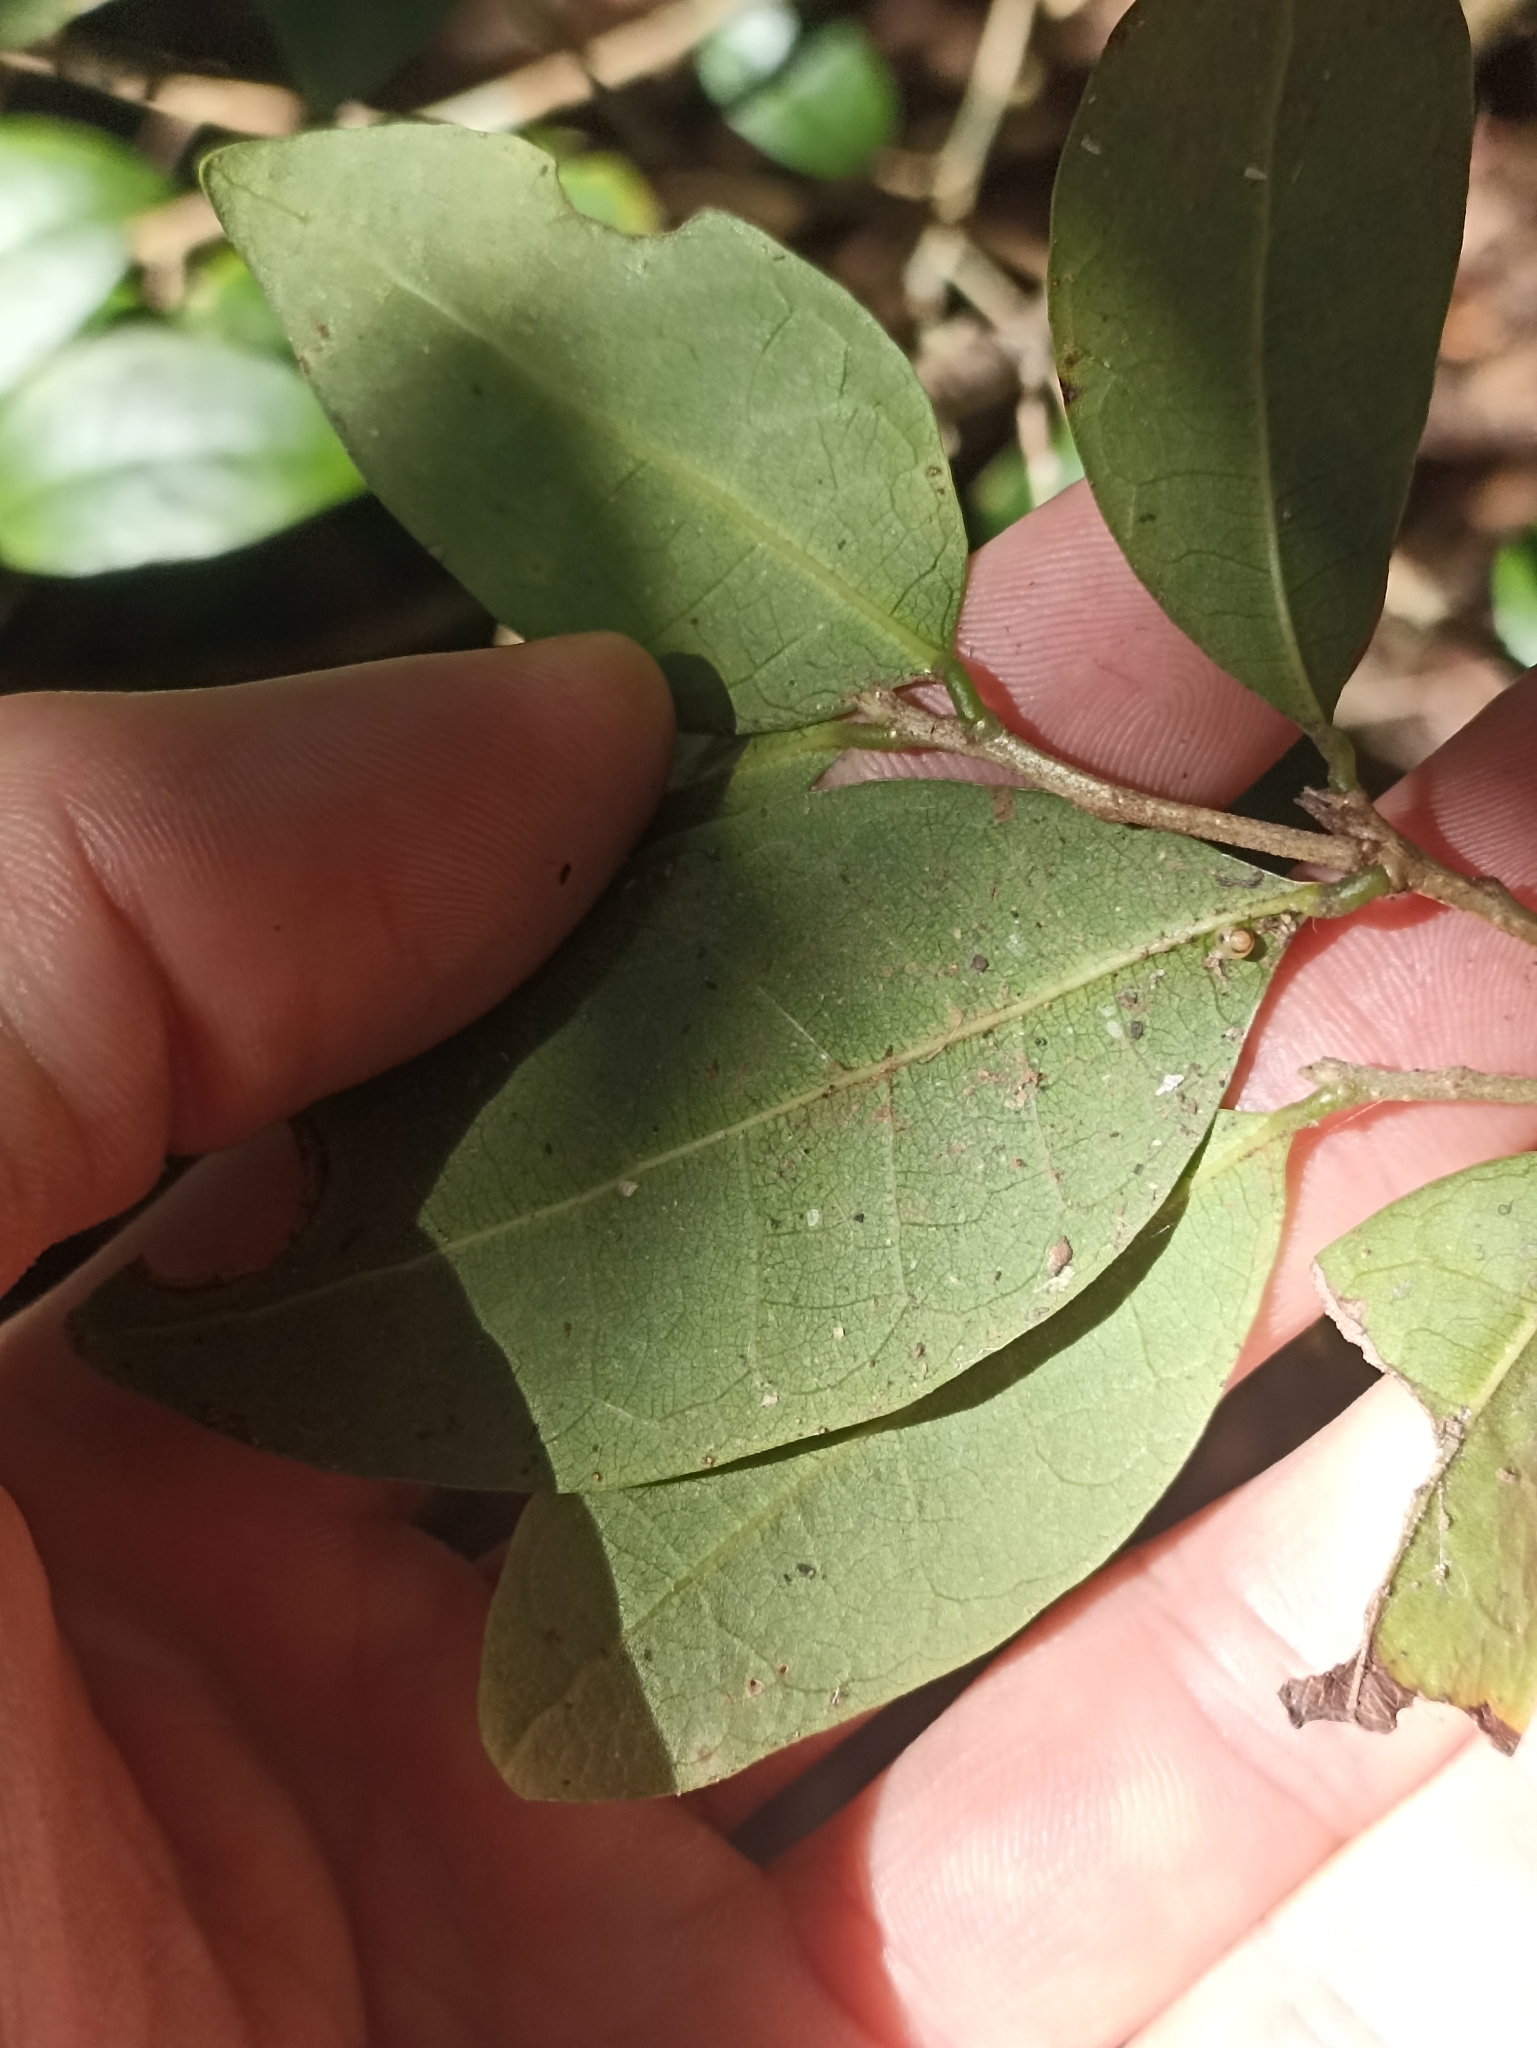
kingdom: Plantae
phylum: Tracheophyta
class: Magnoliopsida
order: Malpighiales
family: Phyllanthaceae
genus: Cleistanthus
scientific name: Cleistanthus cunninghamii
